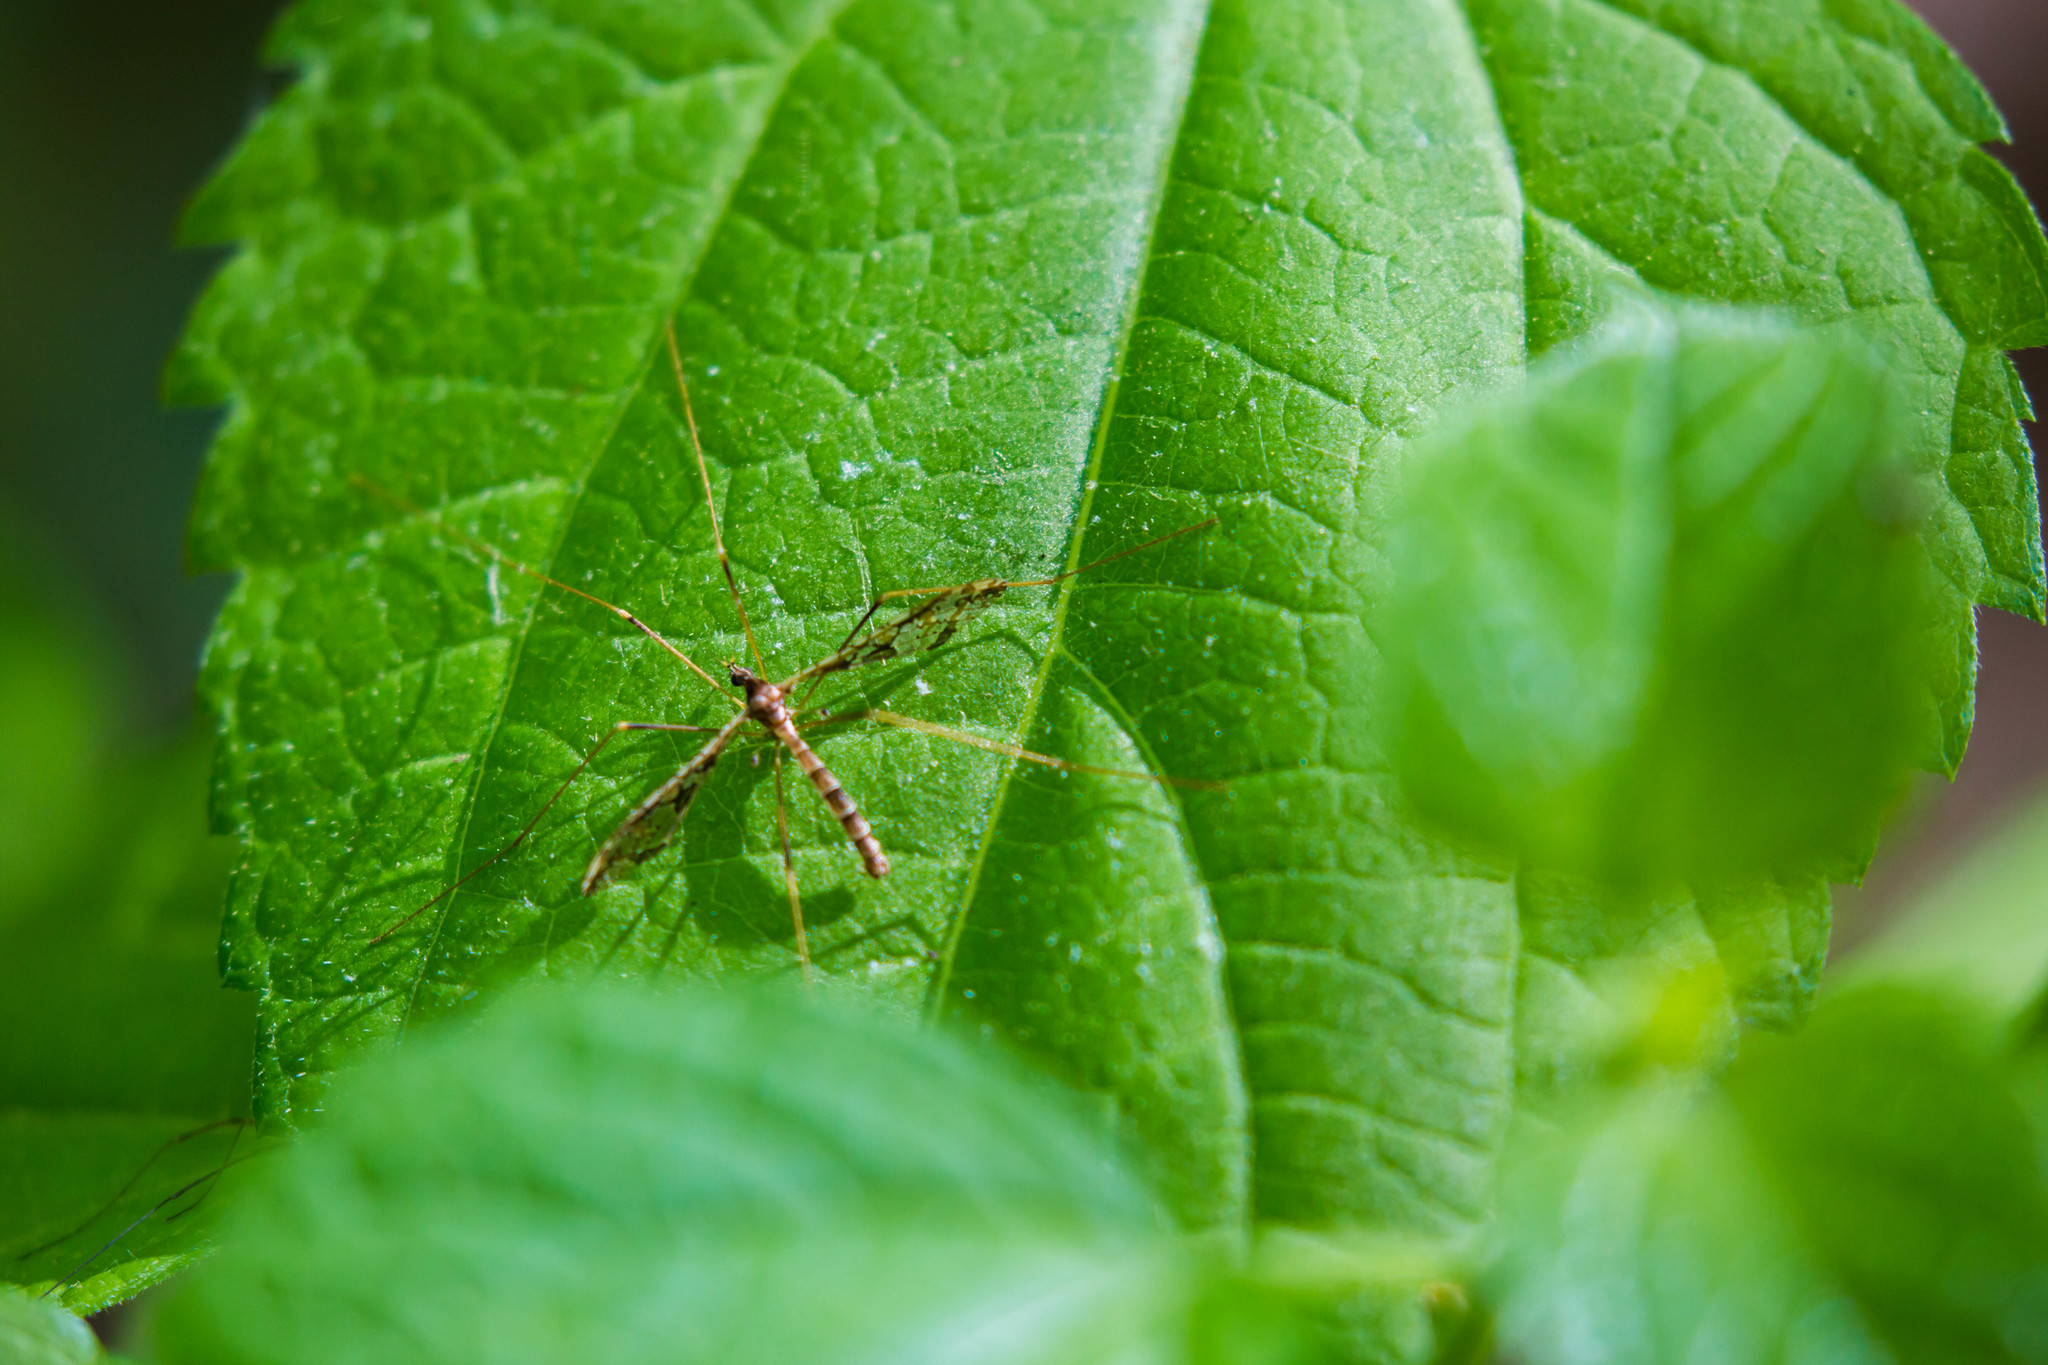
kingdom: Animalia
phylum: Arthropoda
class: Insecta
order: Diptera
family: Limoniidae
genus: Epiphragma
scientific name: Epiphragma solatrix
